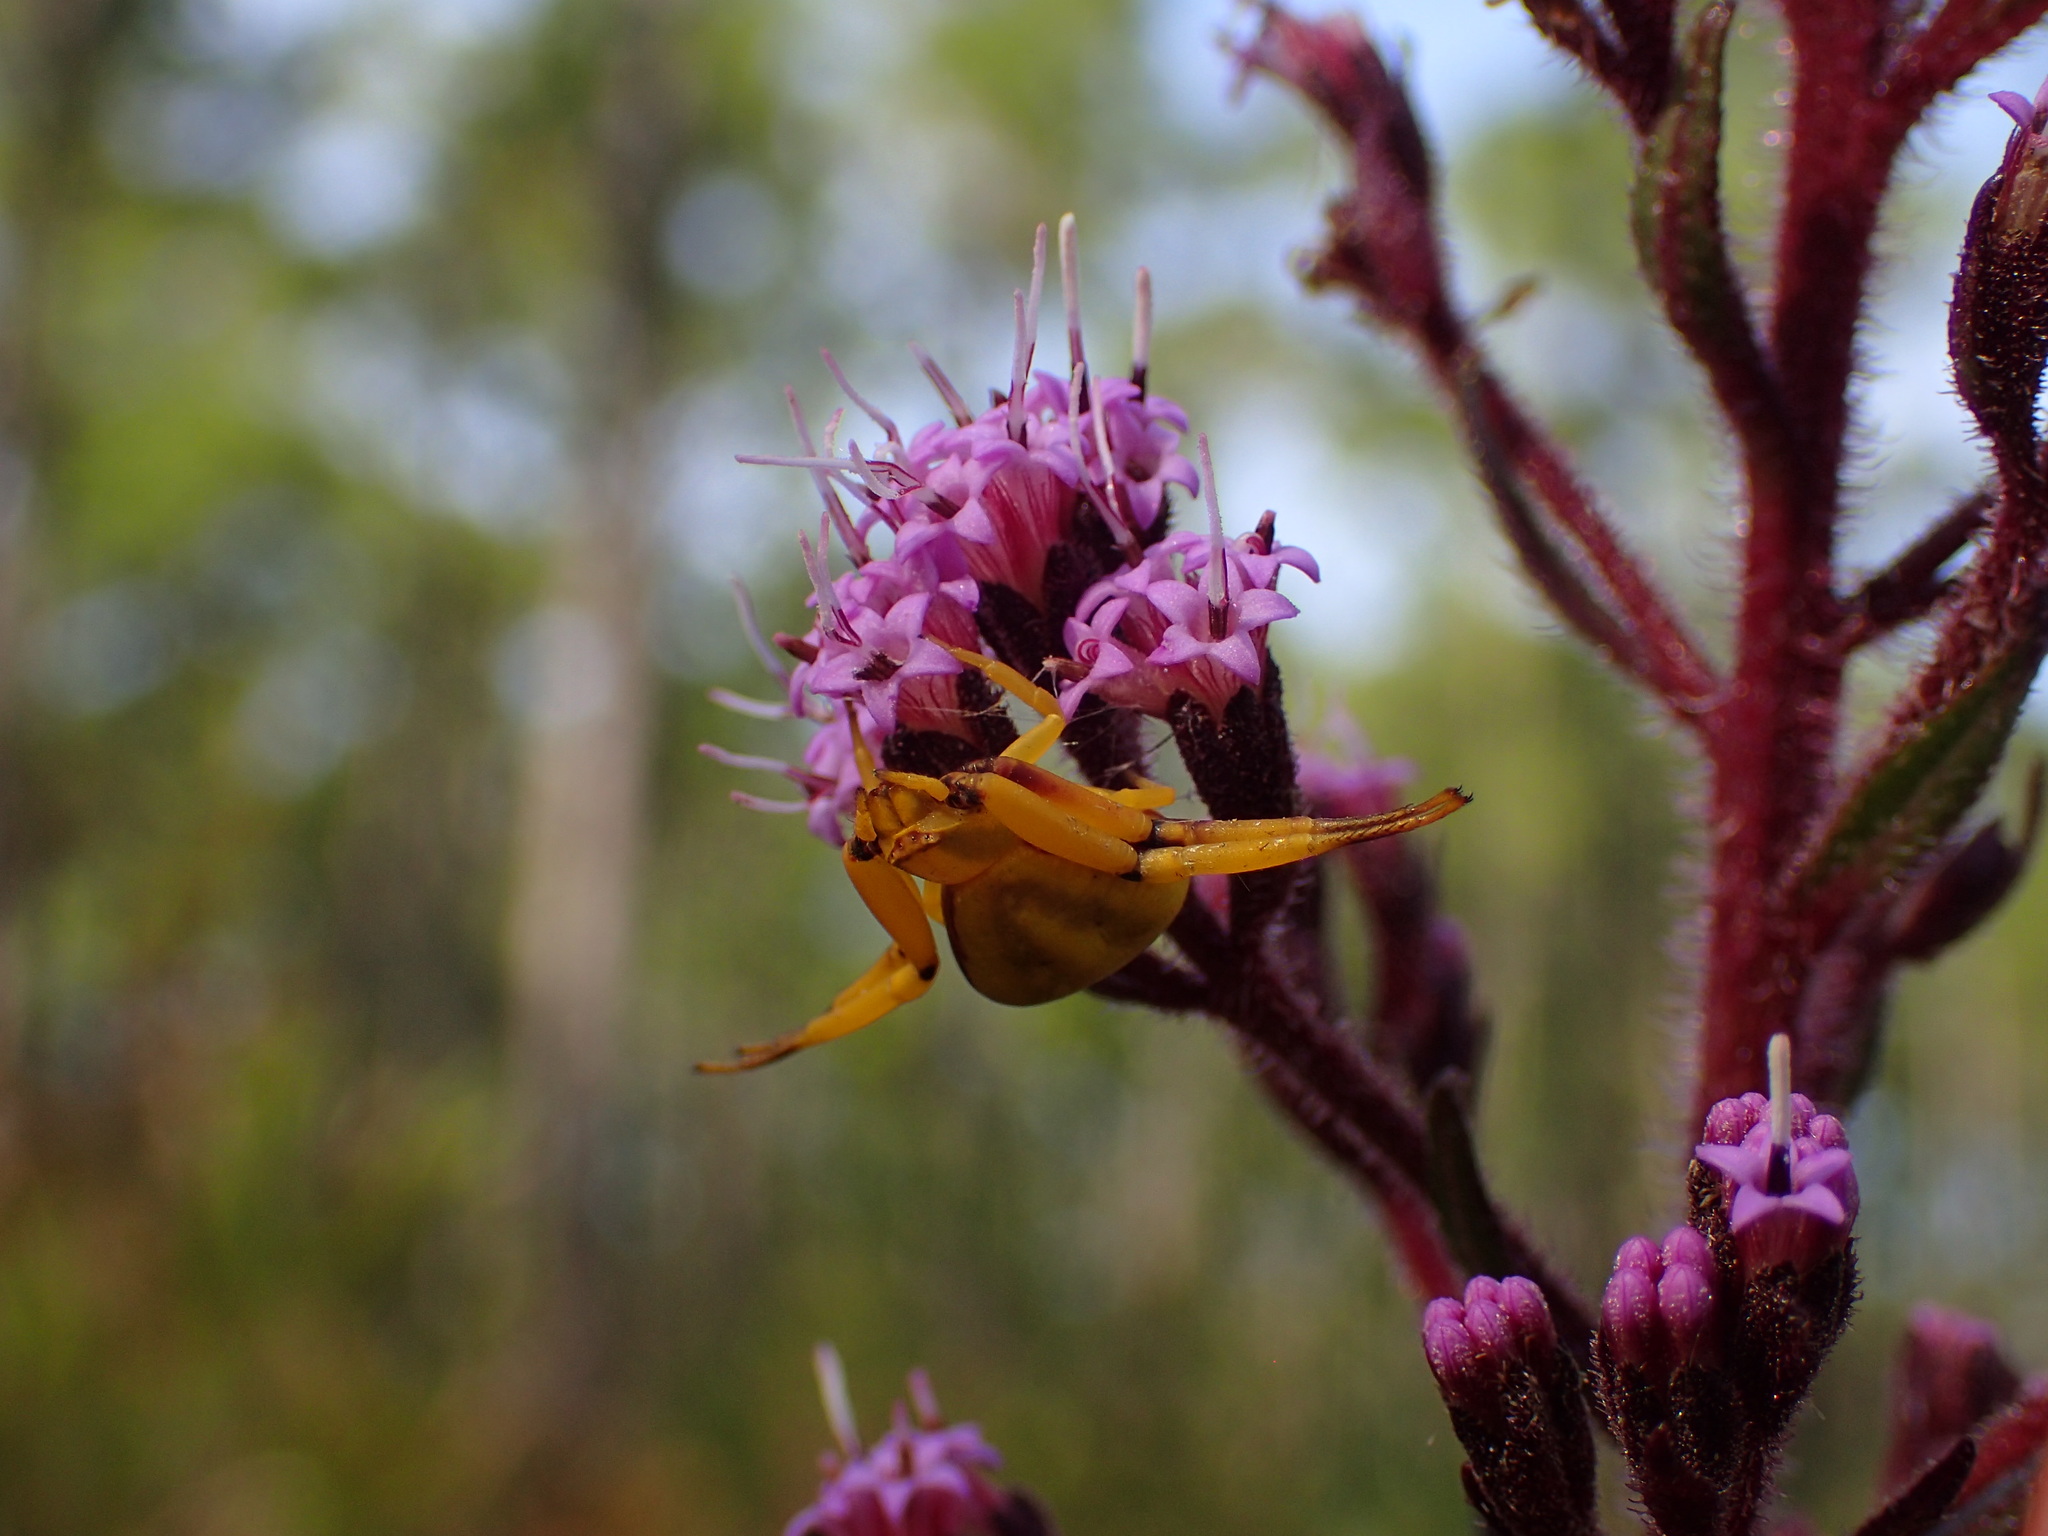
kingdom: Animalia
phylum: Arthropoda
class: Arachnida
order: Araneae
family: Thomisidae
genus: Misumenoides
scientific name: Misumenoides formosipes
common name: White-banded crab spider
